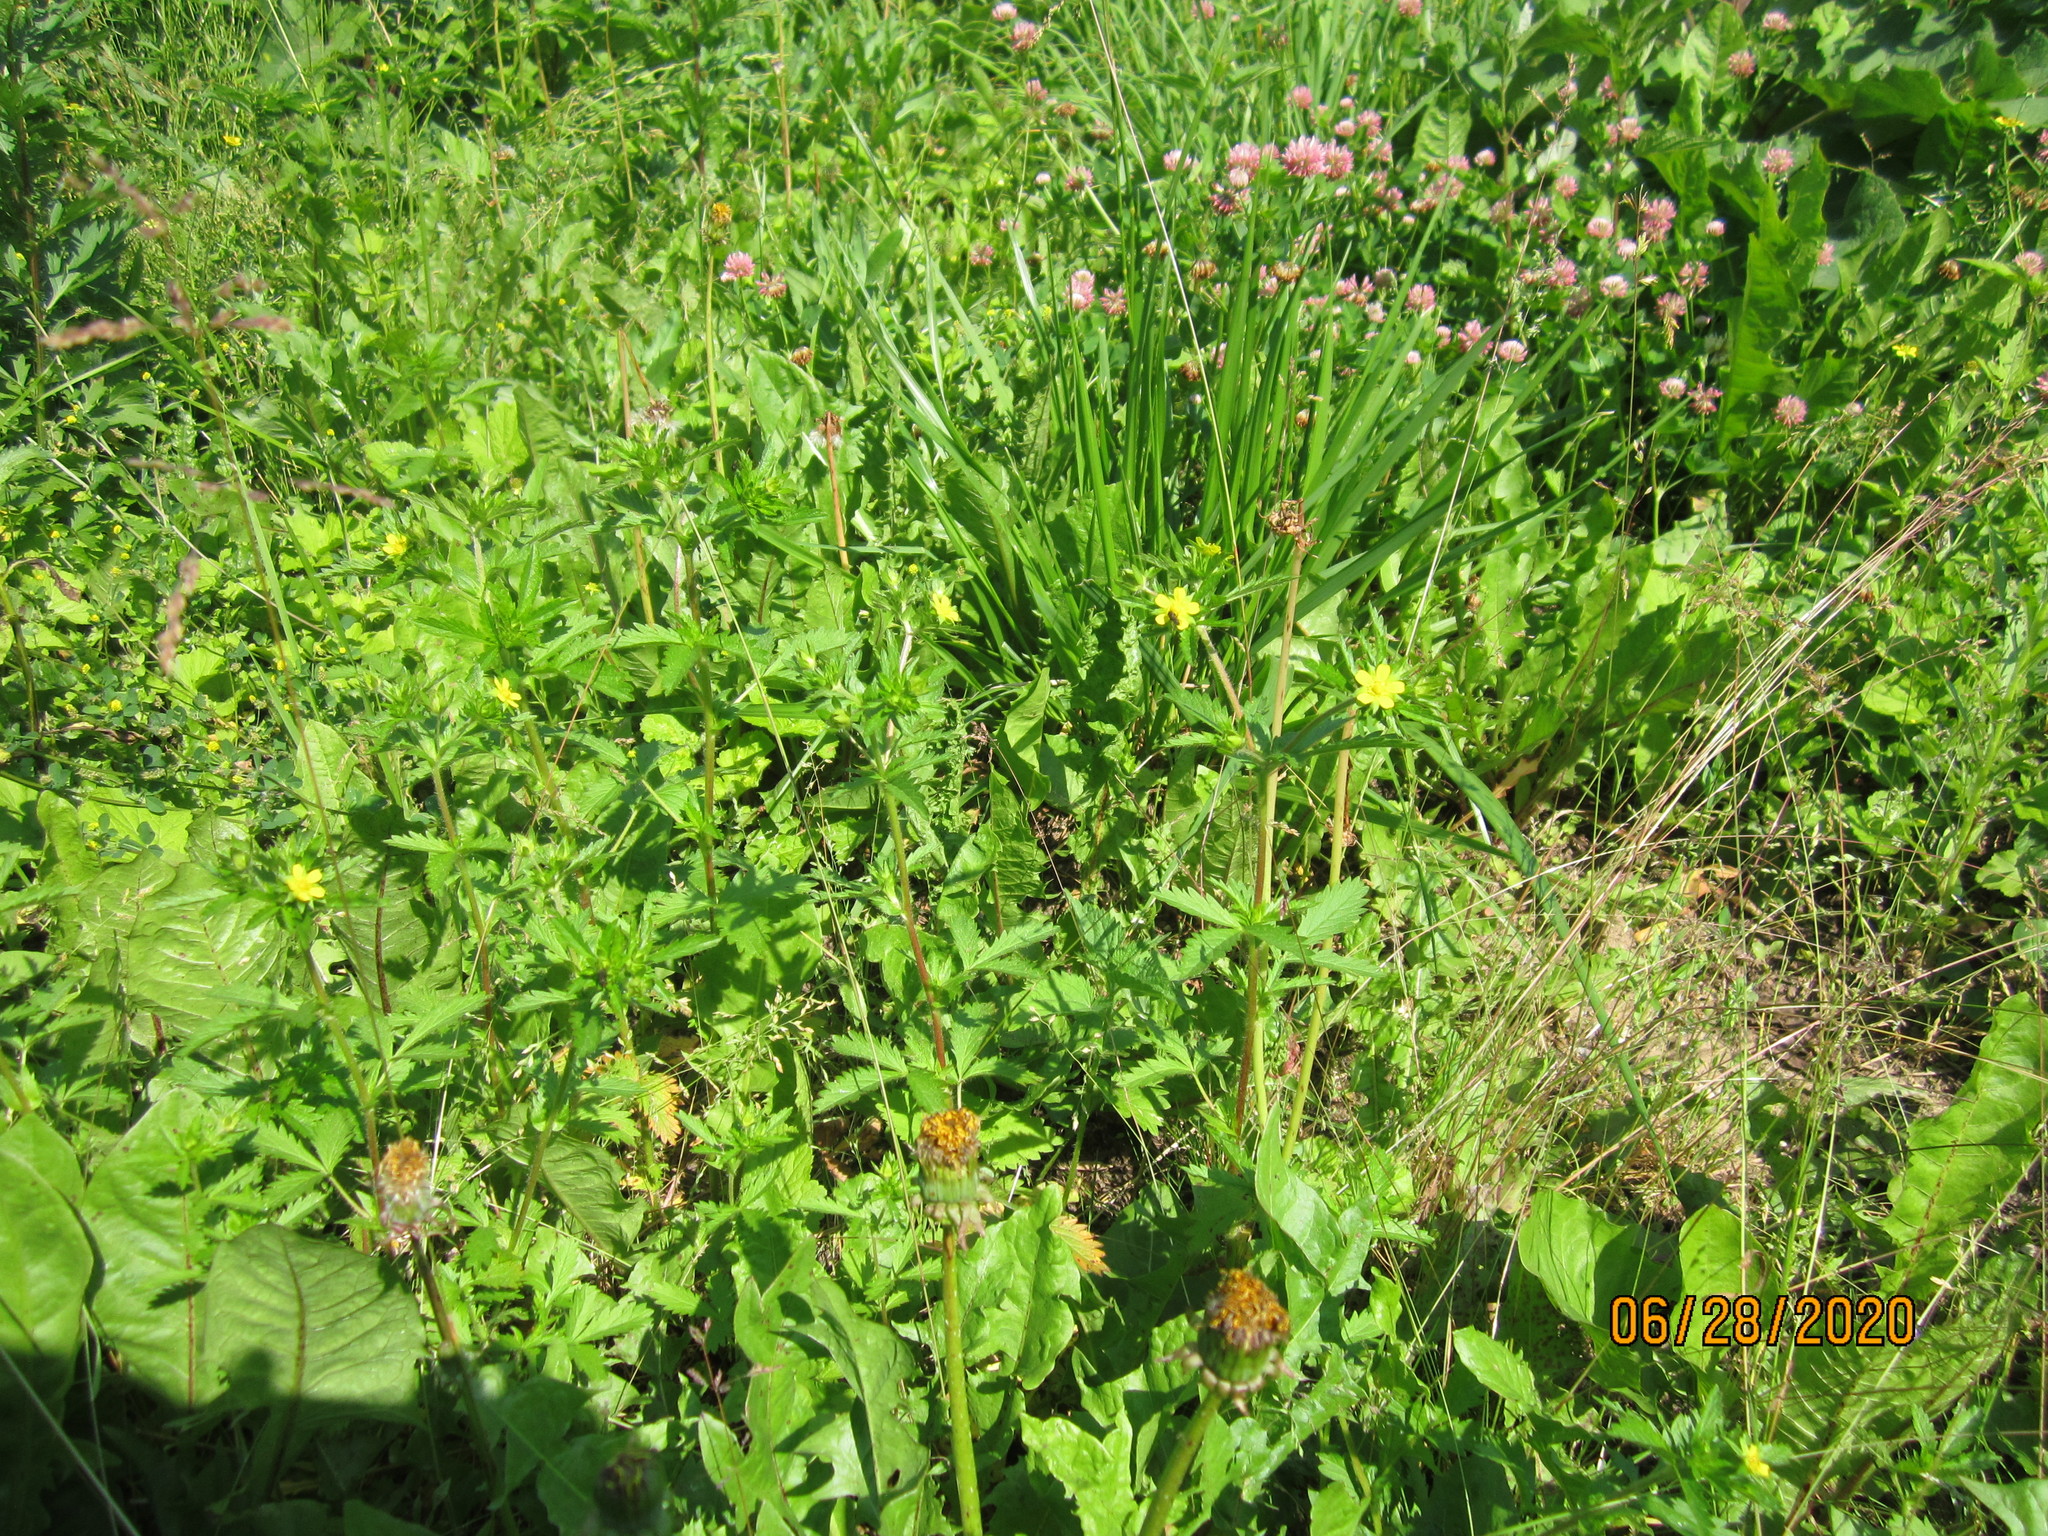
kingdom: Plantae
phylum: Tracheophyta
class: Magnoliopsida
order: Rosales
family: Rosaceae
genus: Potentilla
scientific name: Potentilla norvegica
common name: Ternate-leaved cinquefoil
